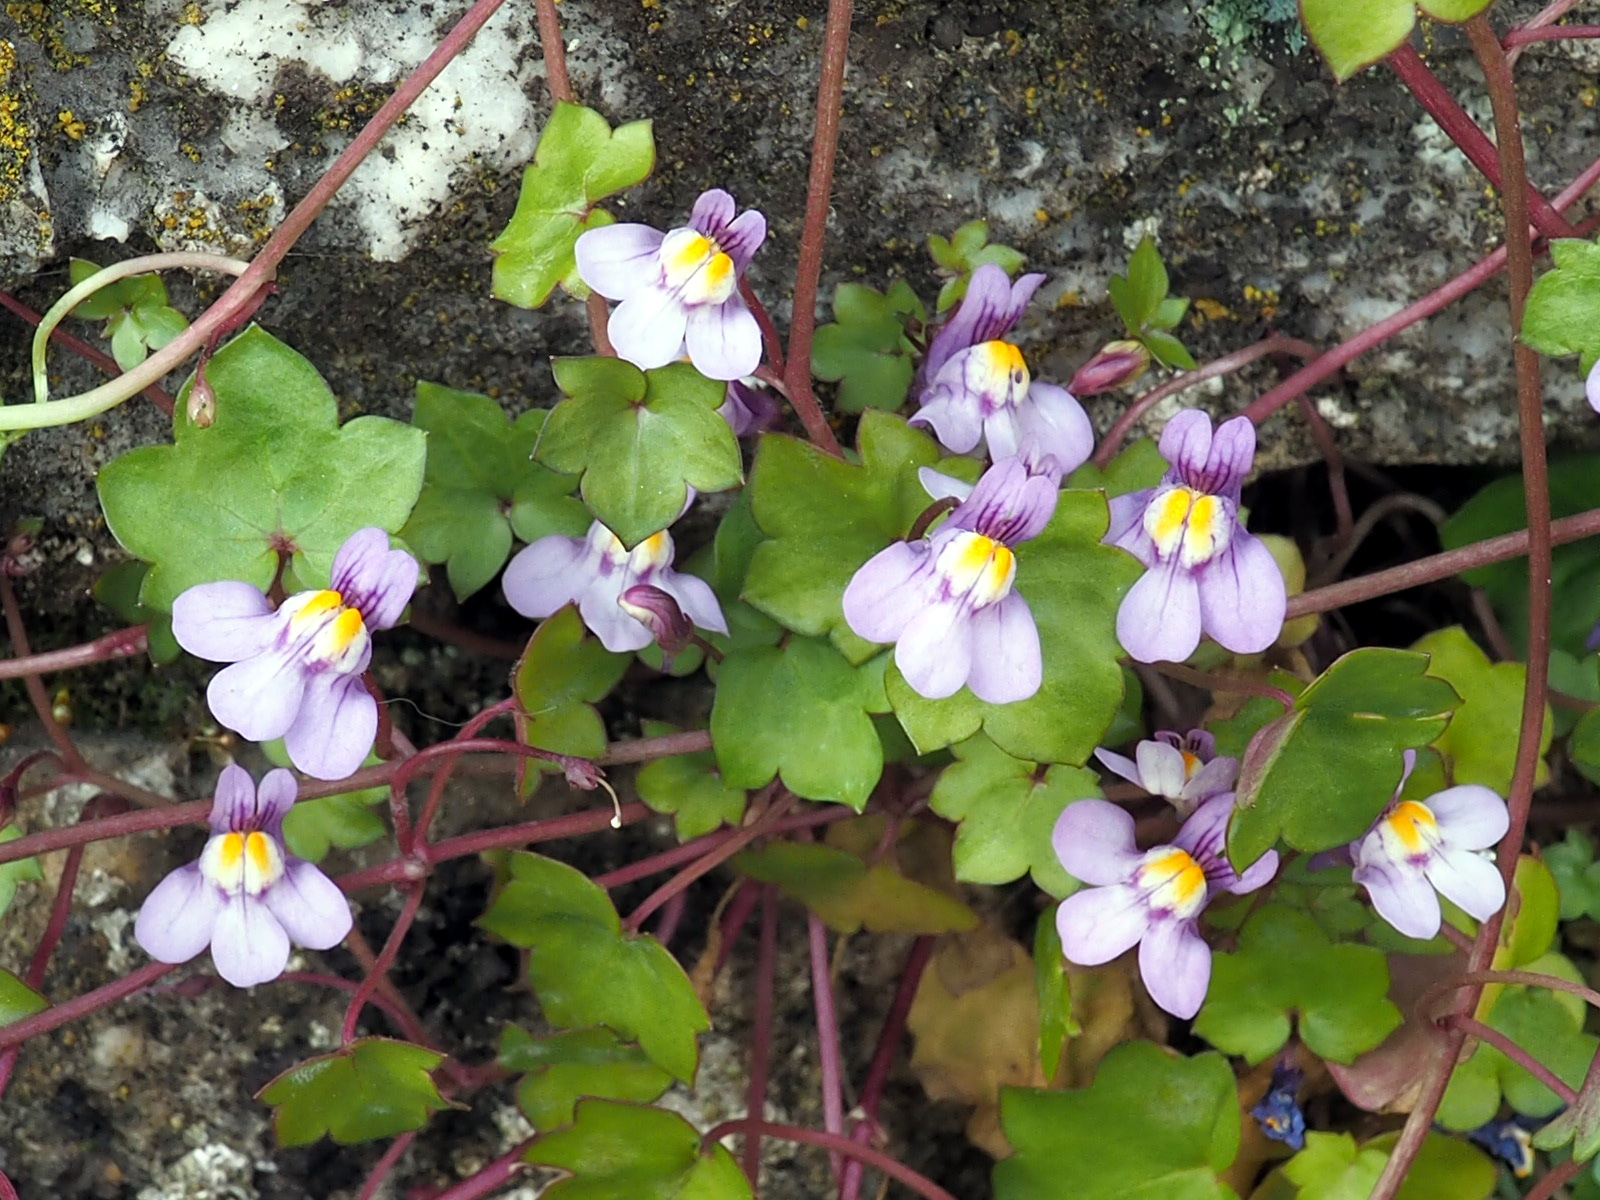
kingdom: Plantae
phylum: Tracheophyta
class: Magnoliopsida
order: Lamiales
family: Plantaginaceae
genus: Cymbalaria
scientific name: Cymbalaria muralis
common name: Ivy-leaved toadflax
